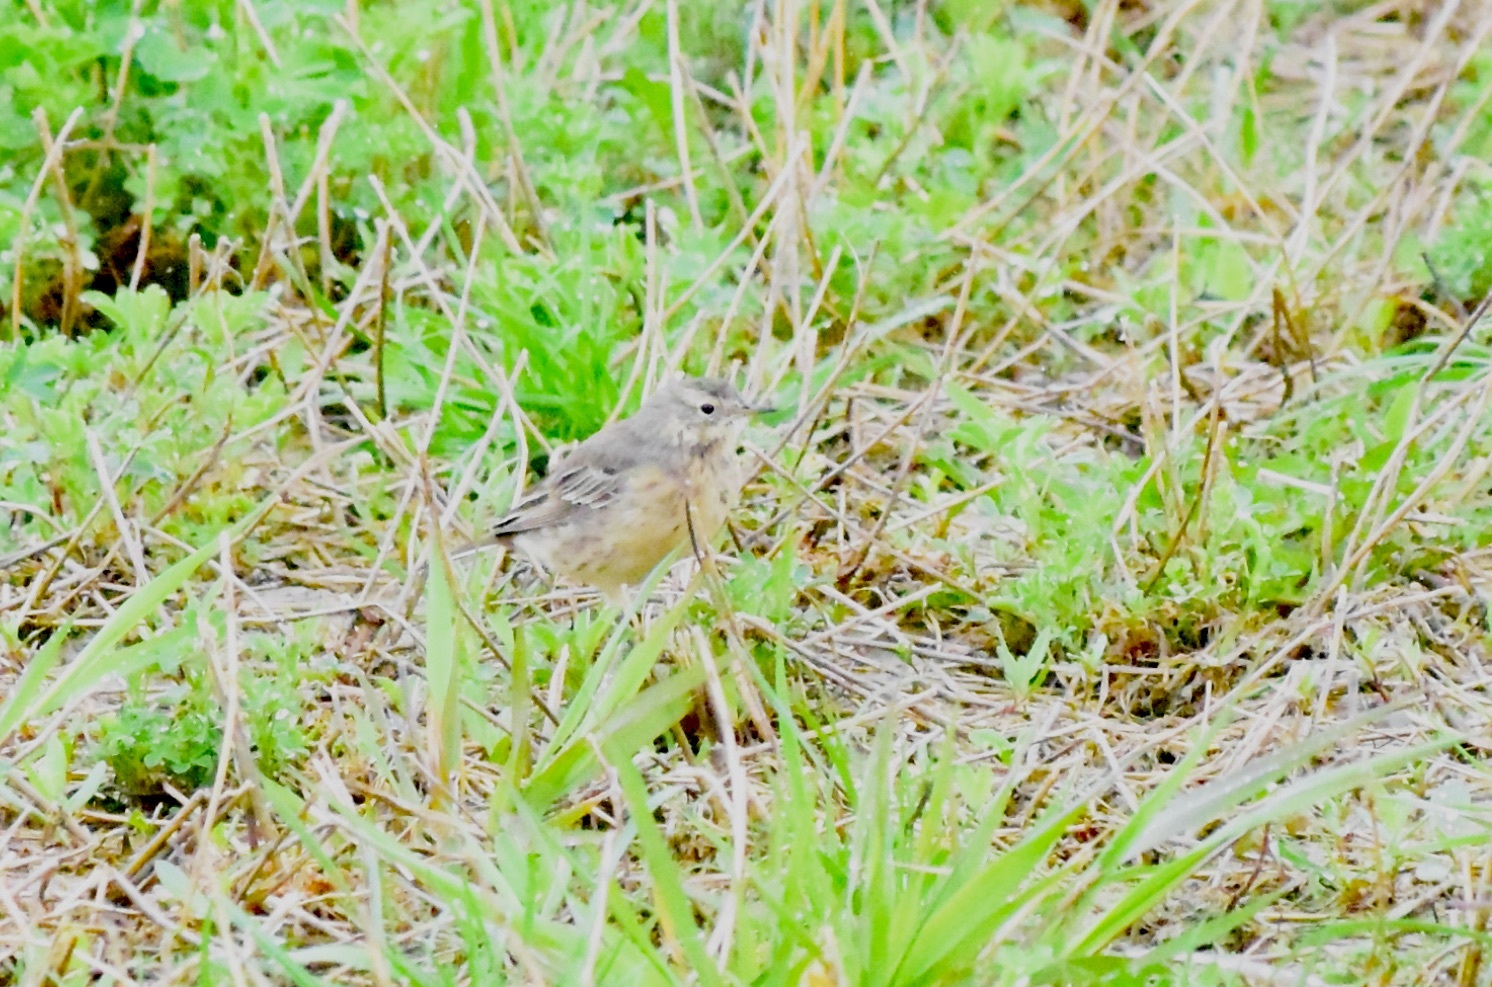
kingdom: Animalia
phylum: Chordata
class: Aves
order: Passeriformes
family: Motacillidae
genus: Anthus
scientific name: Anthus rubescens
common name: Buff-bellied pipit
